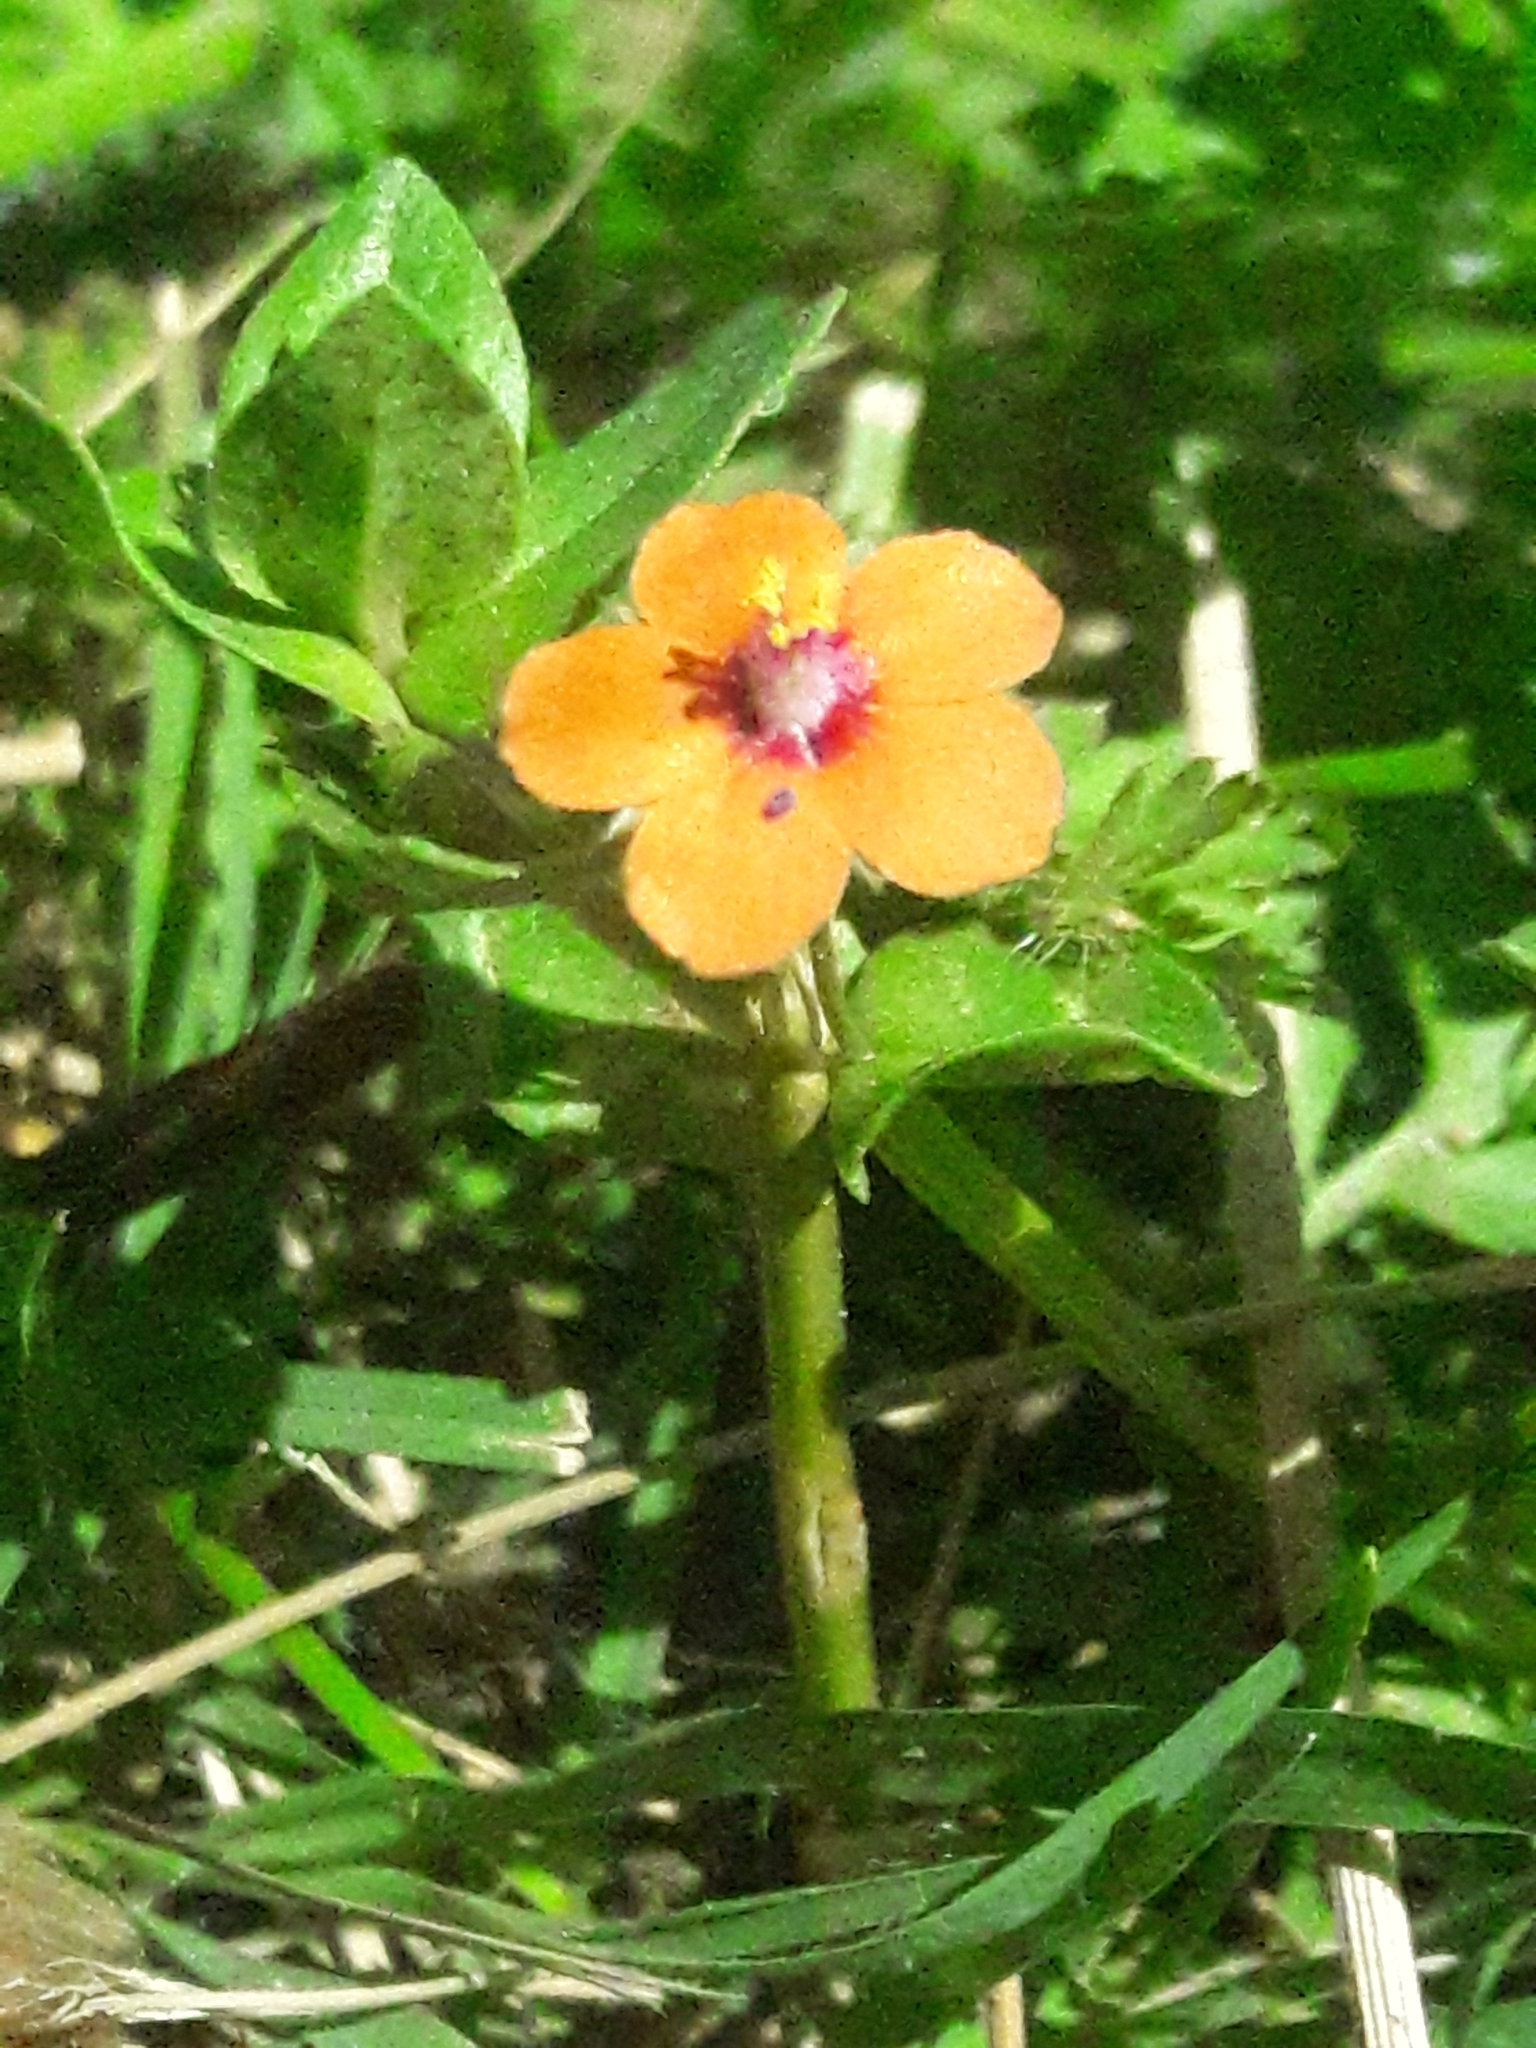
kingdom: Plantae
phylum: Tracheophyta
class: Magnoliopsida
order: Ericales
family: Primulaceae
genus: Lysimachia
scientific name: Lysimachia arvensis
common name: Scarlet pimpernel
